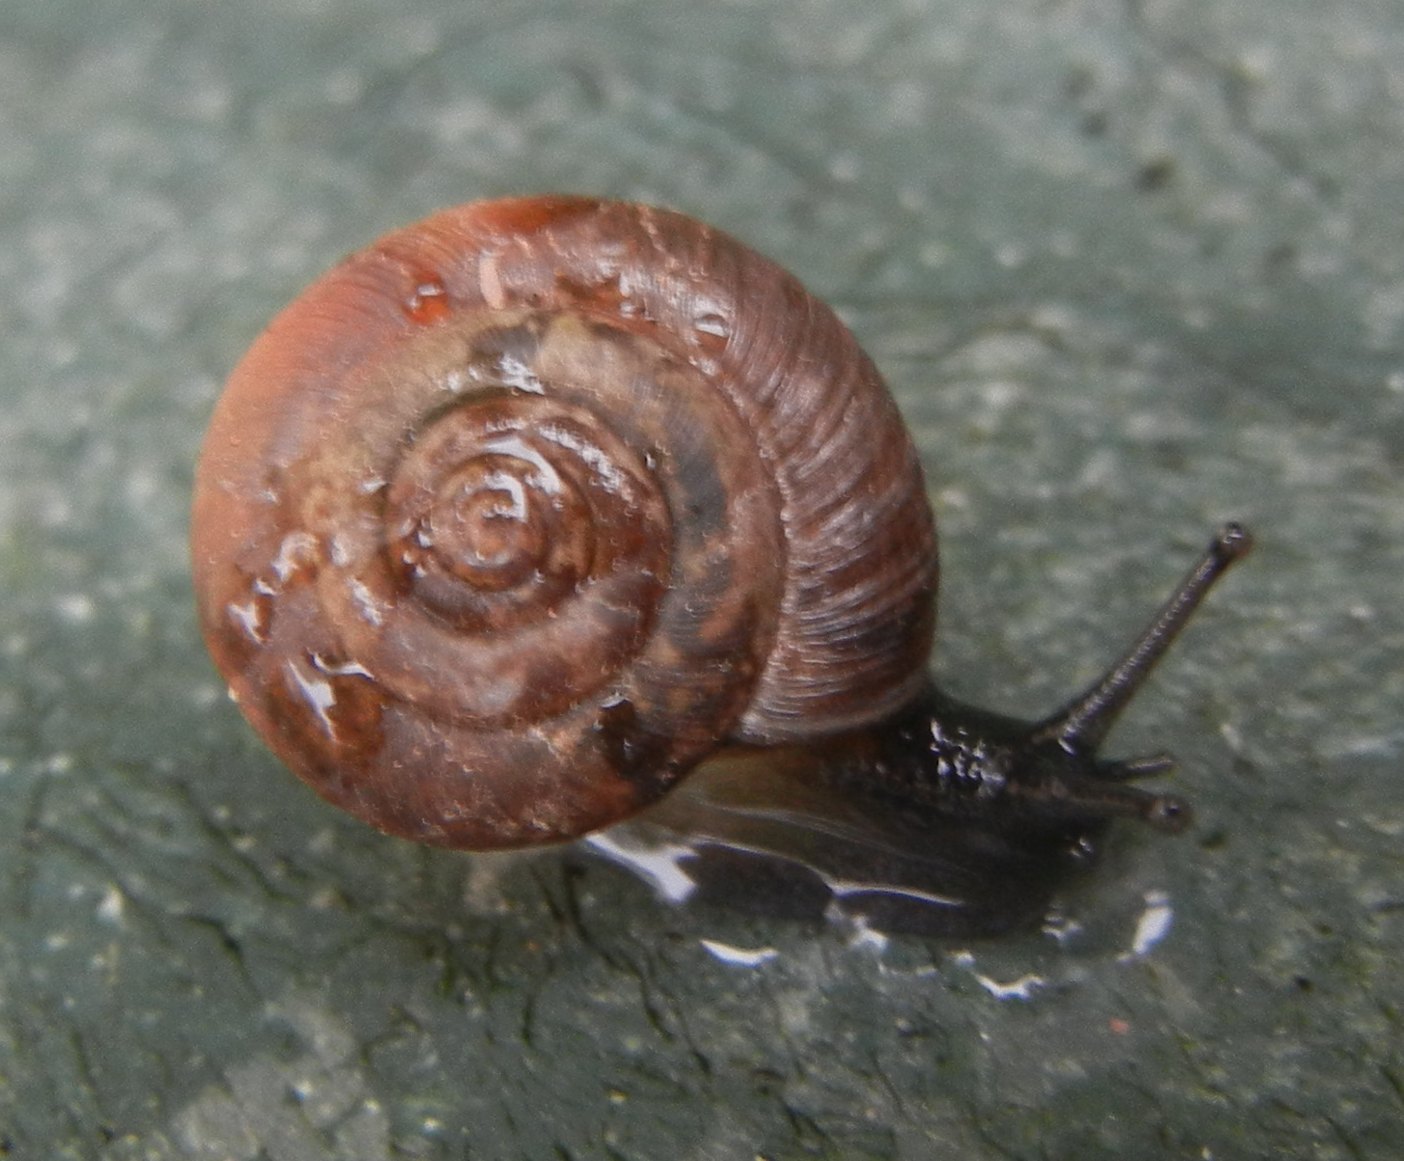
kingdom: Animalia
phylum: Mollusca
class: Gastropoda
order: Stylommatophora
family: Hygromiidae
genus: Trochulus
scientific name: Trochulus striolatus
